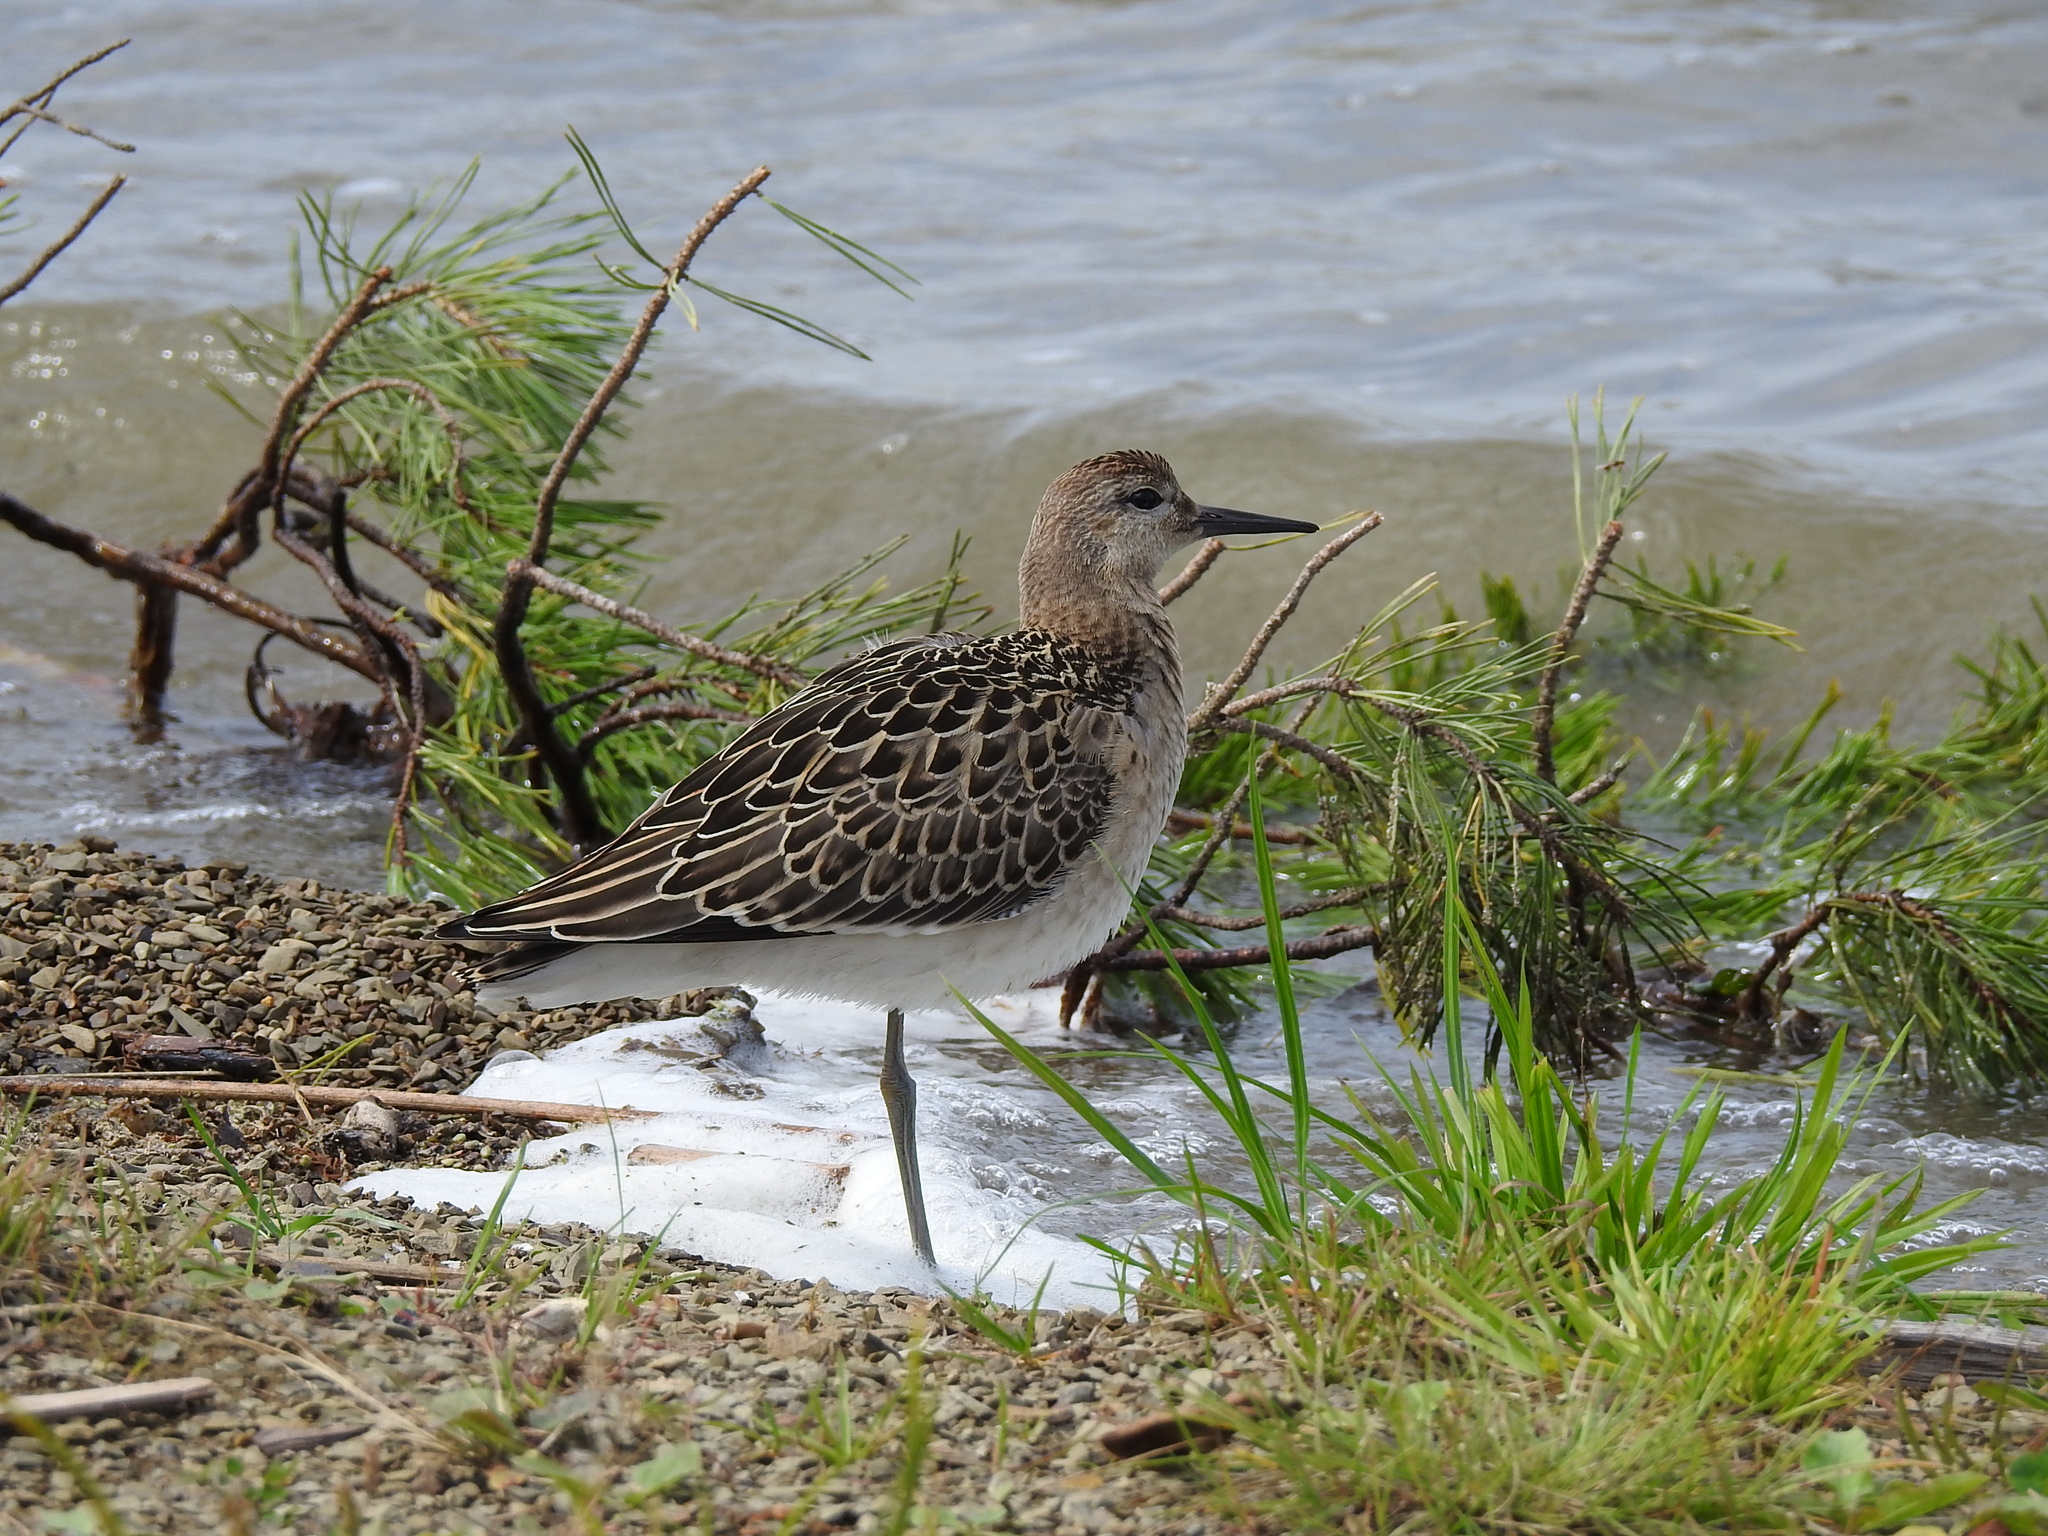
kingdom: Animalia
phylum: Chordata
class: Aves
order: Charadriiformes
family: Scolopacidae
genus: Calidris
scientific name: Calidris pugnax
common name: Ruff
